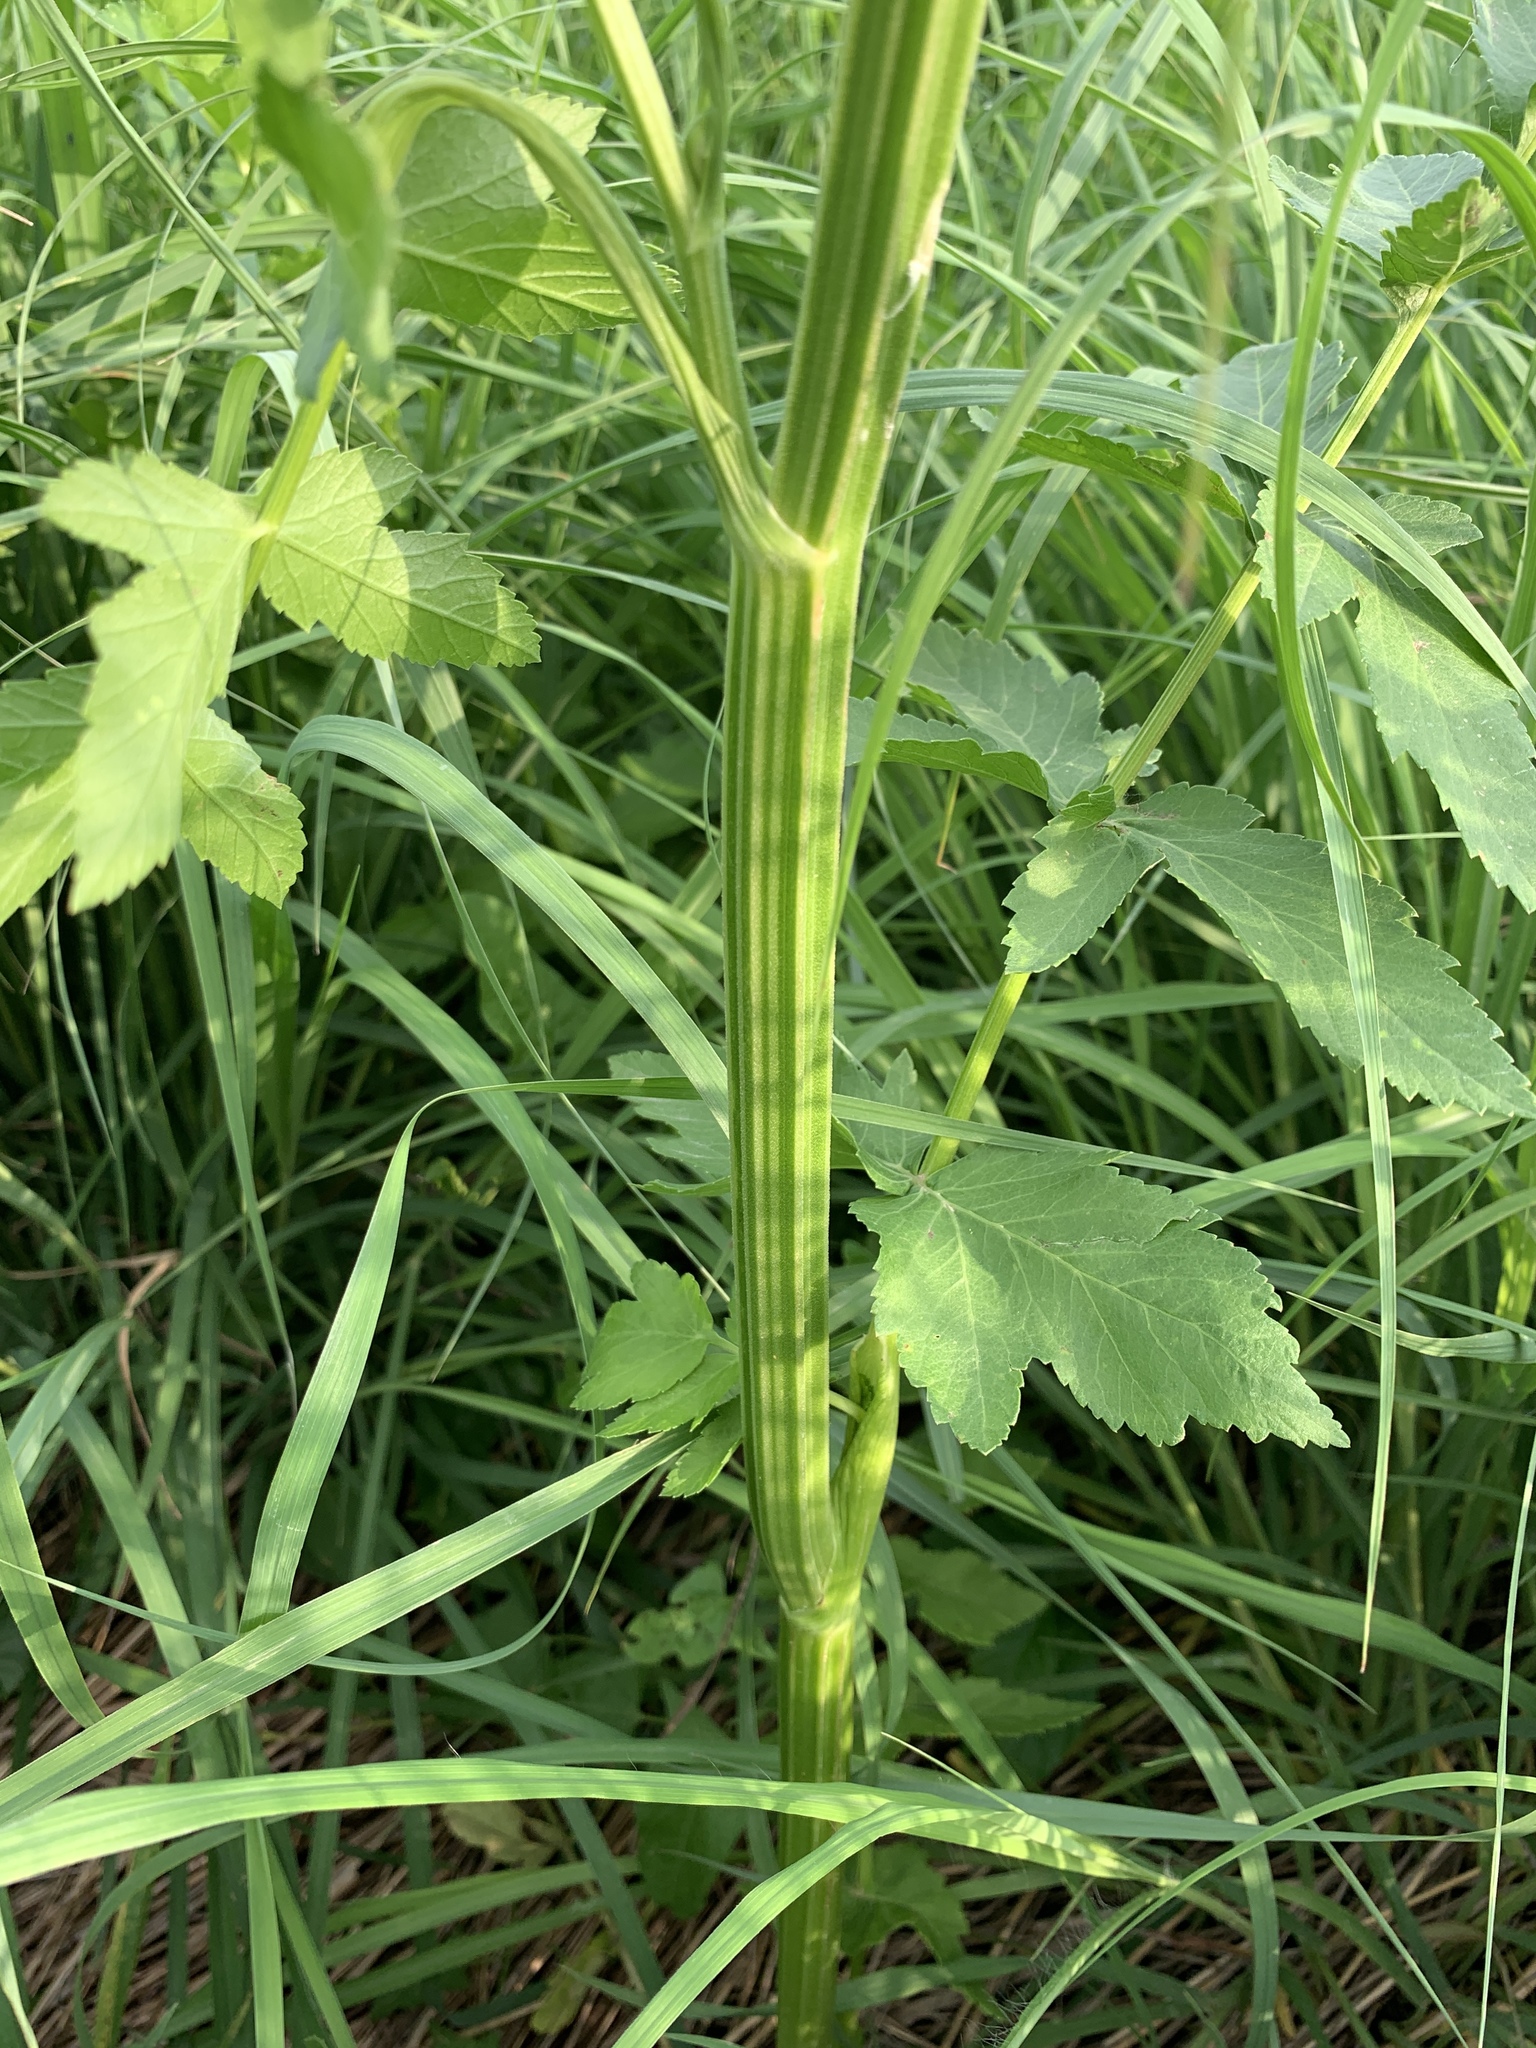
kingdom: Plantae
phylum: Tracheophyta
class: Magnoliopsida
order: Apiales
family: Apiaceae
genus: Pastinaca
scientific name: Pastinaca sativa
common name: Wild parsnip
